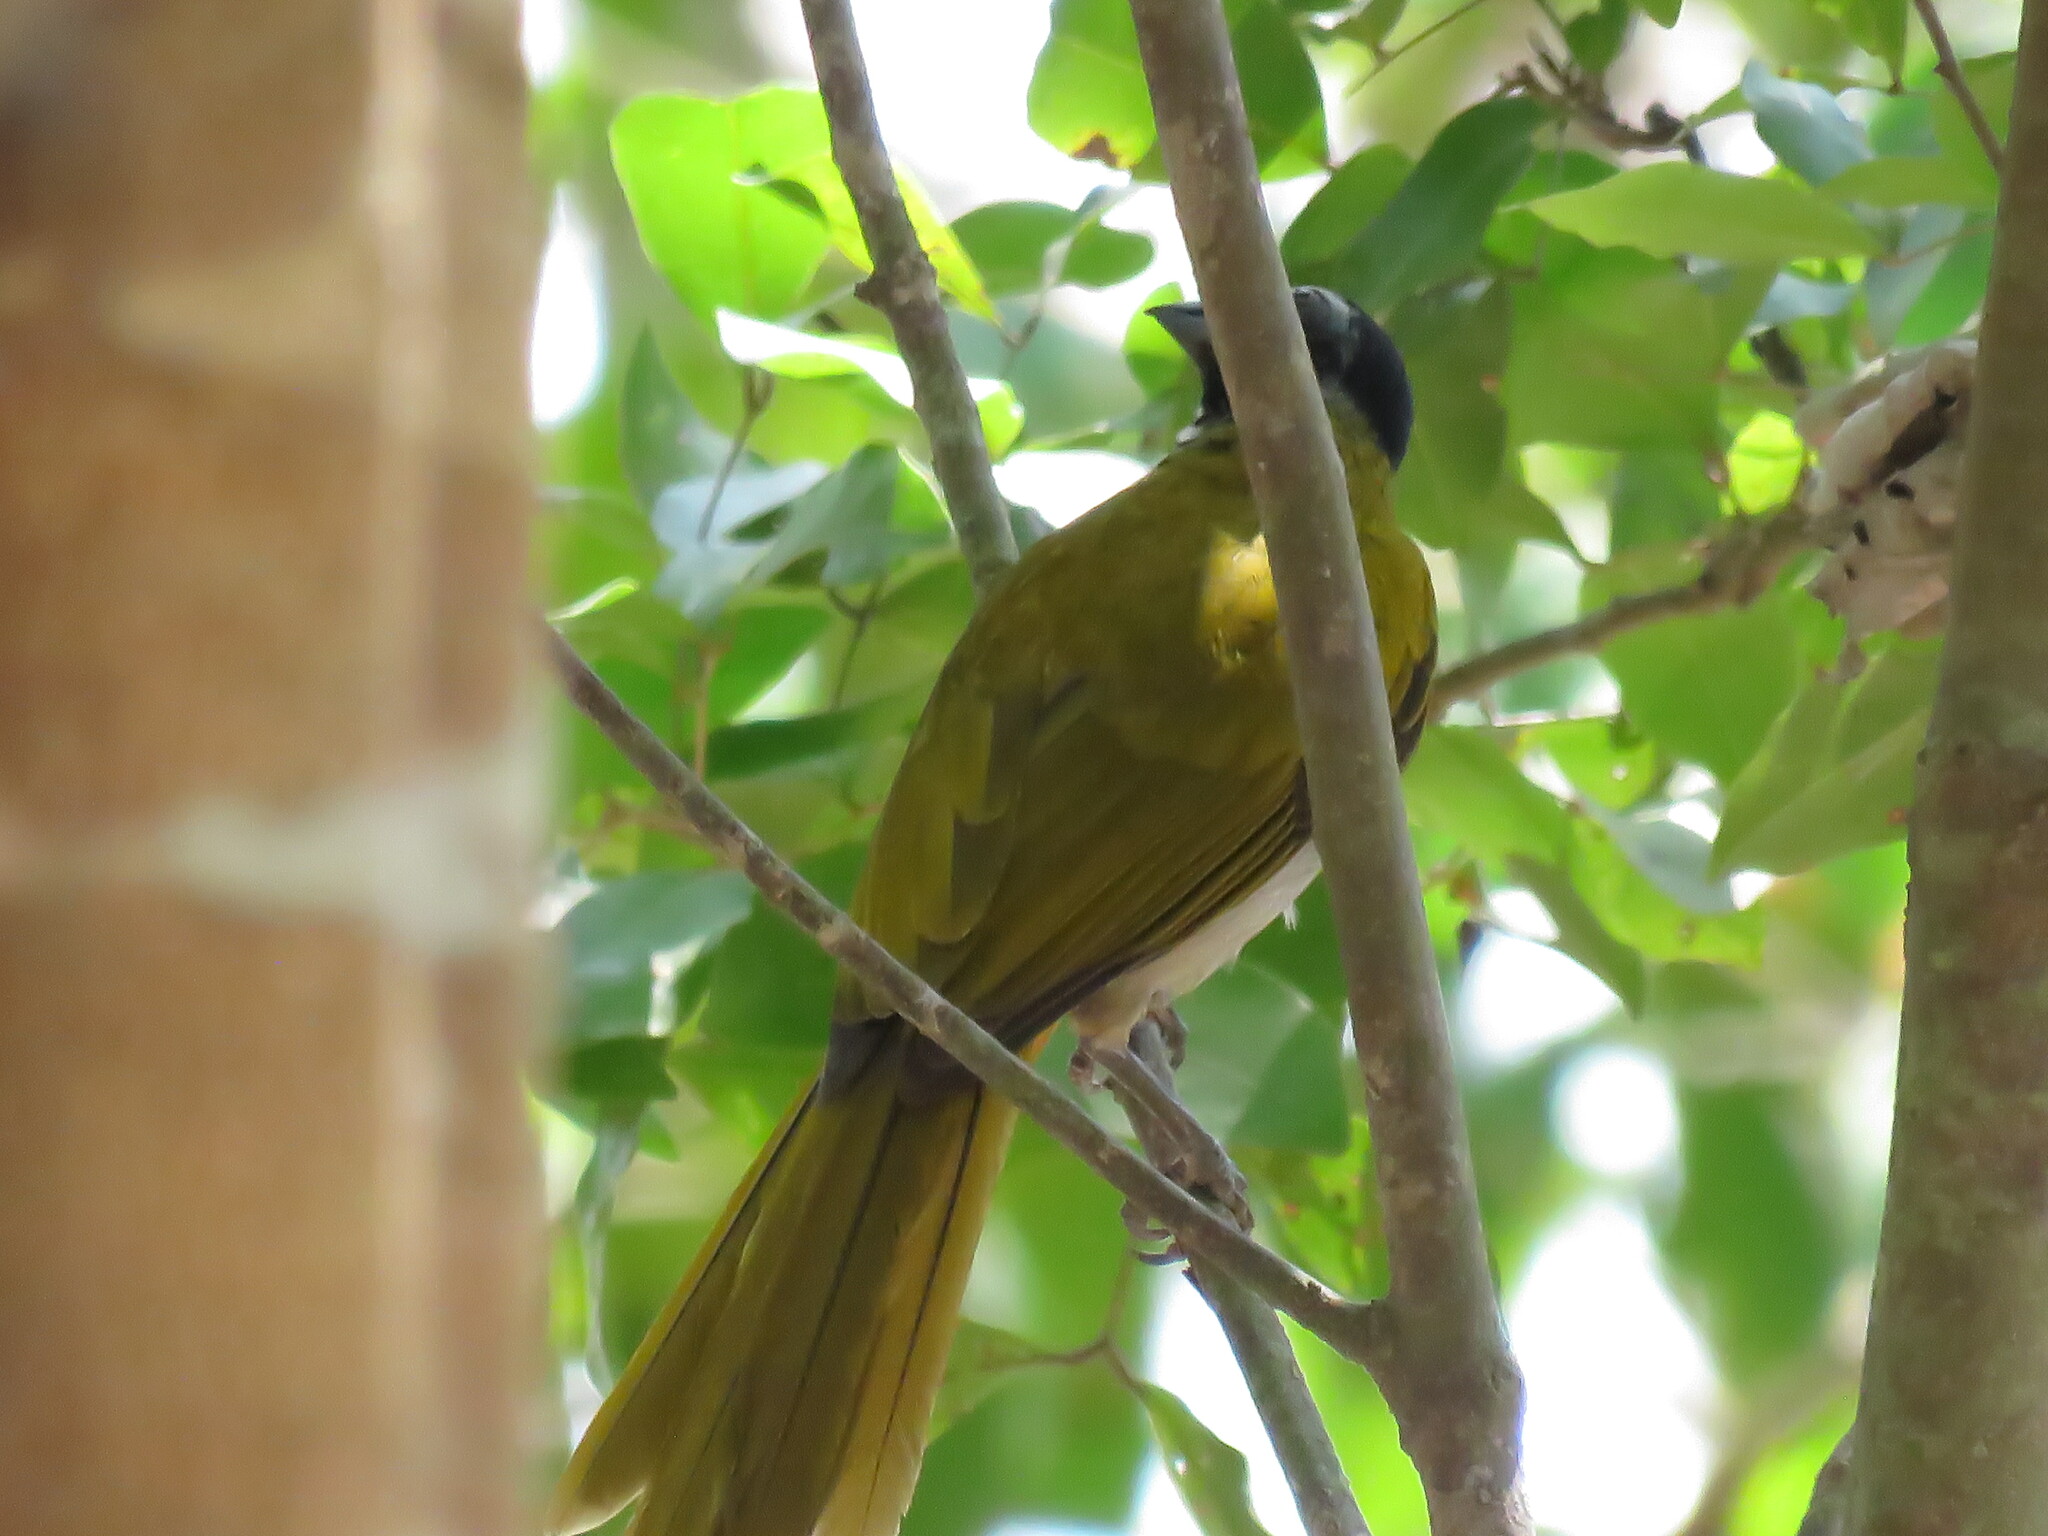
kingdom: Animalia
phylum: Chordata
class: Aves
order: Passeriformes
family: Thraupidae
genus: Saltator
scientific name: Saltator atriceps
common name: Black-headed saltator
